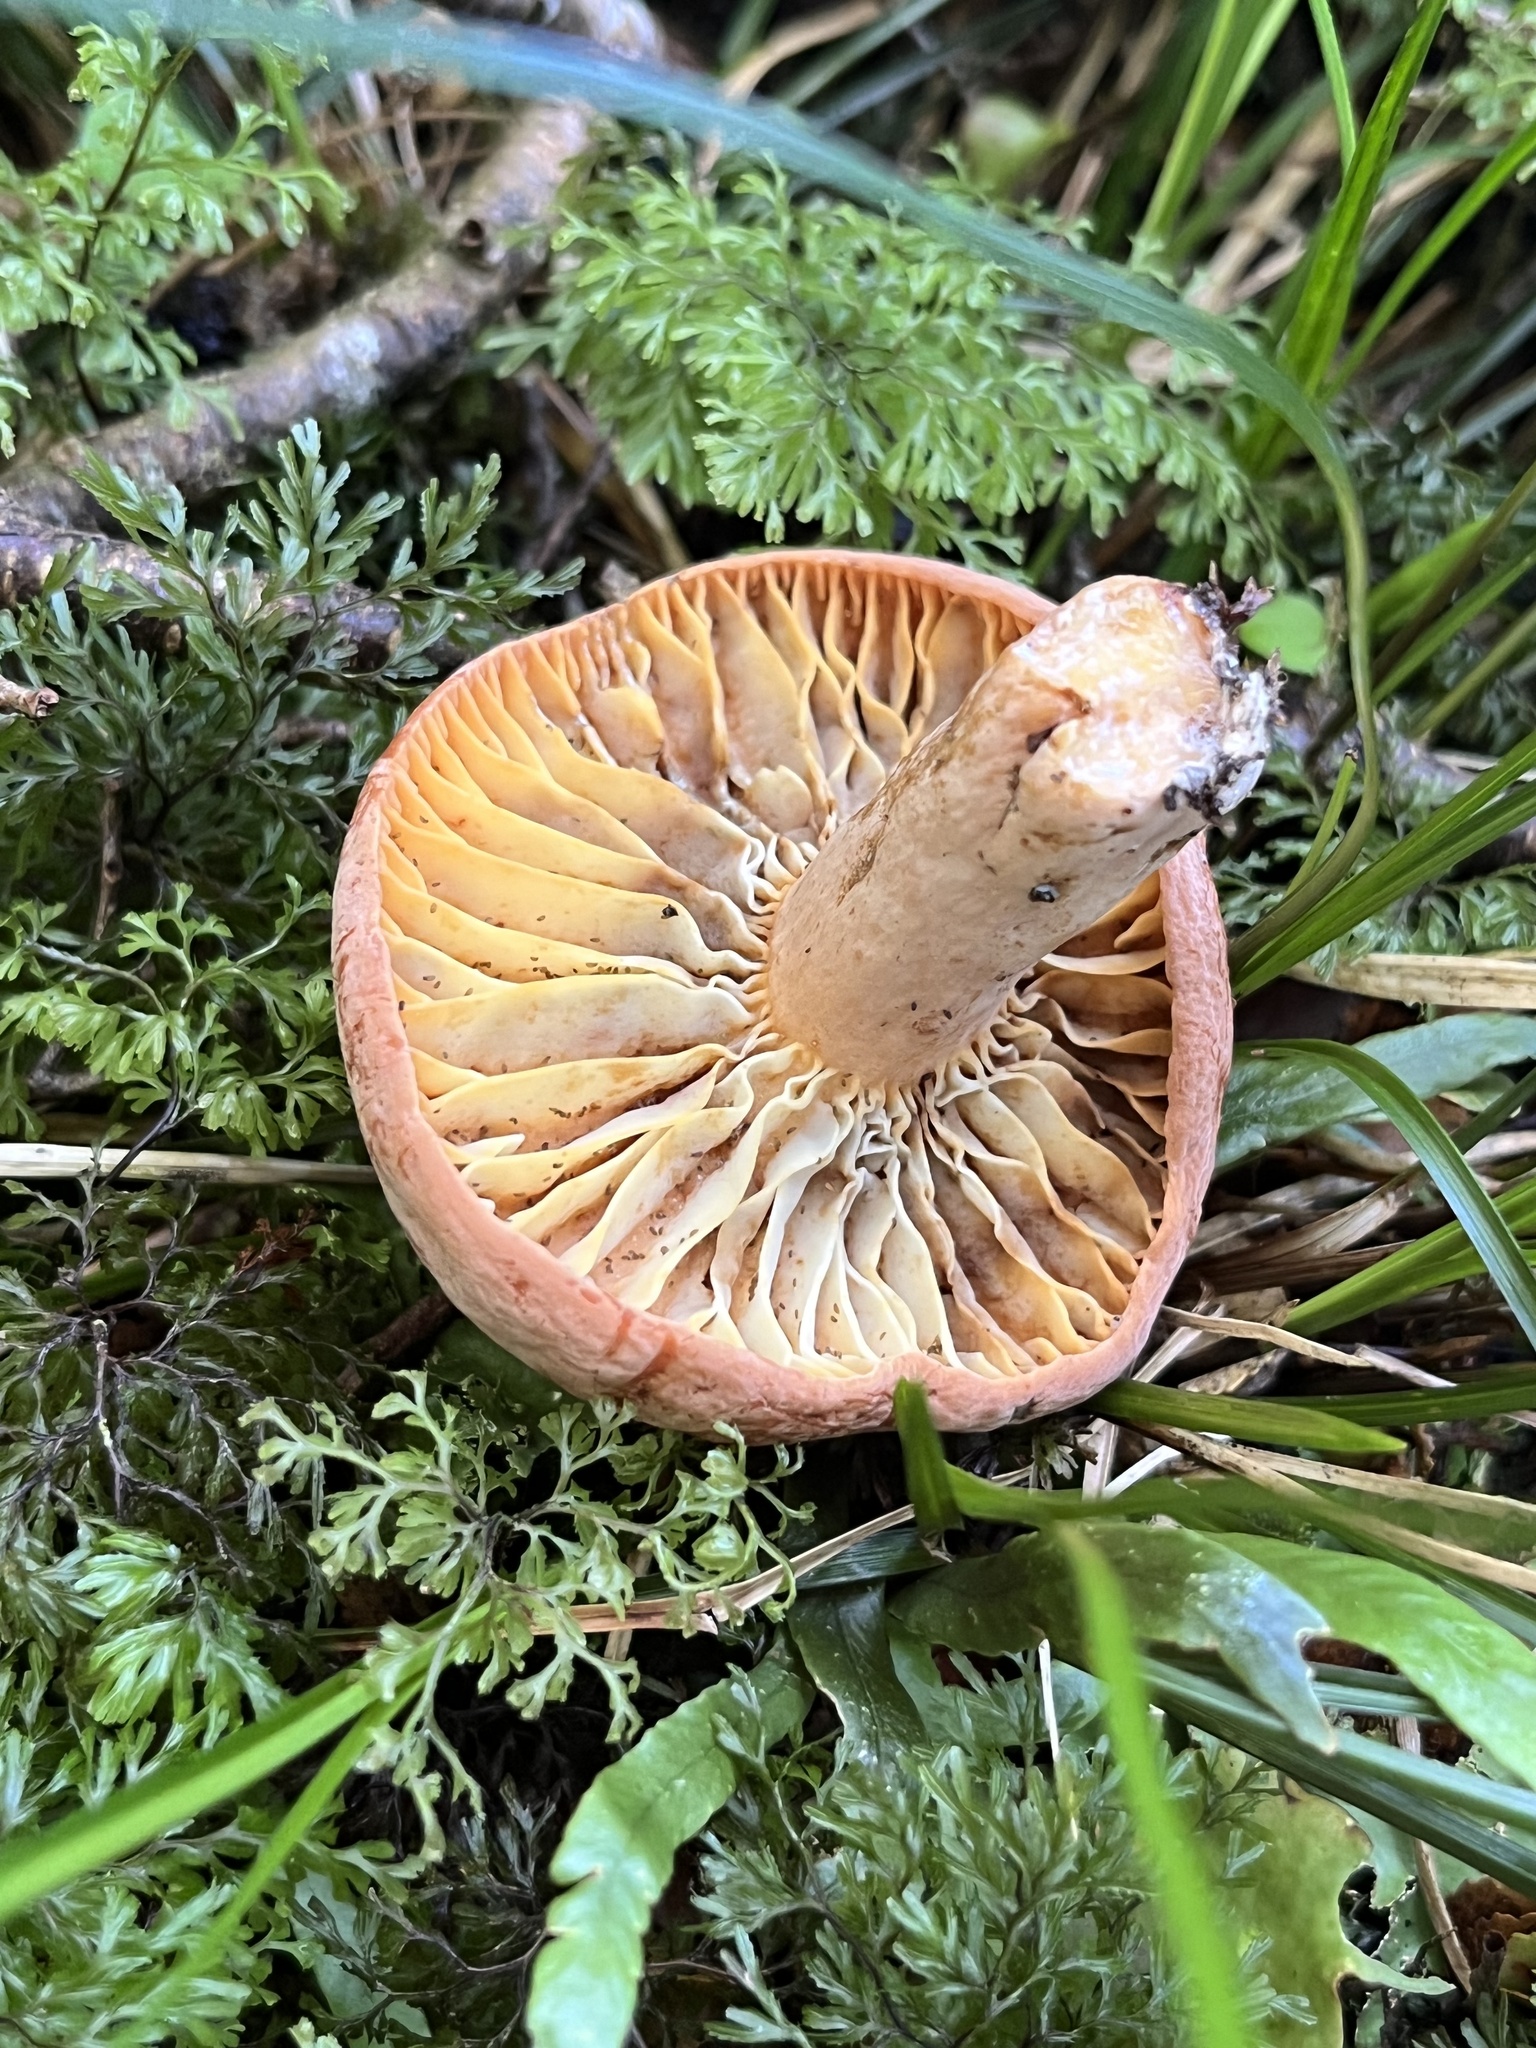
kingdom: Fungi
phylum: Basidiomycota
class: Agaricomycetes
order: Russulales
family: Russulaceae
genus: Lactifluus
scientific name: Lactifluus aurantioruber
